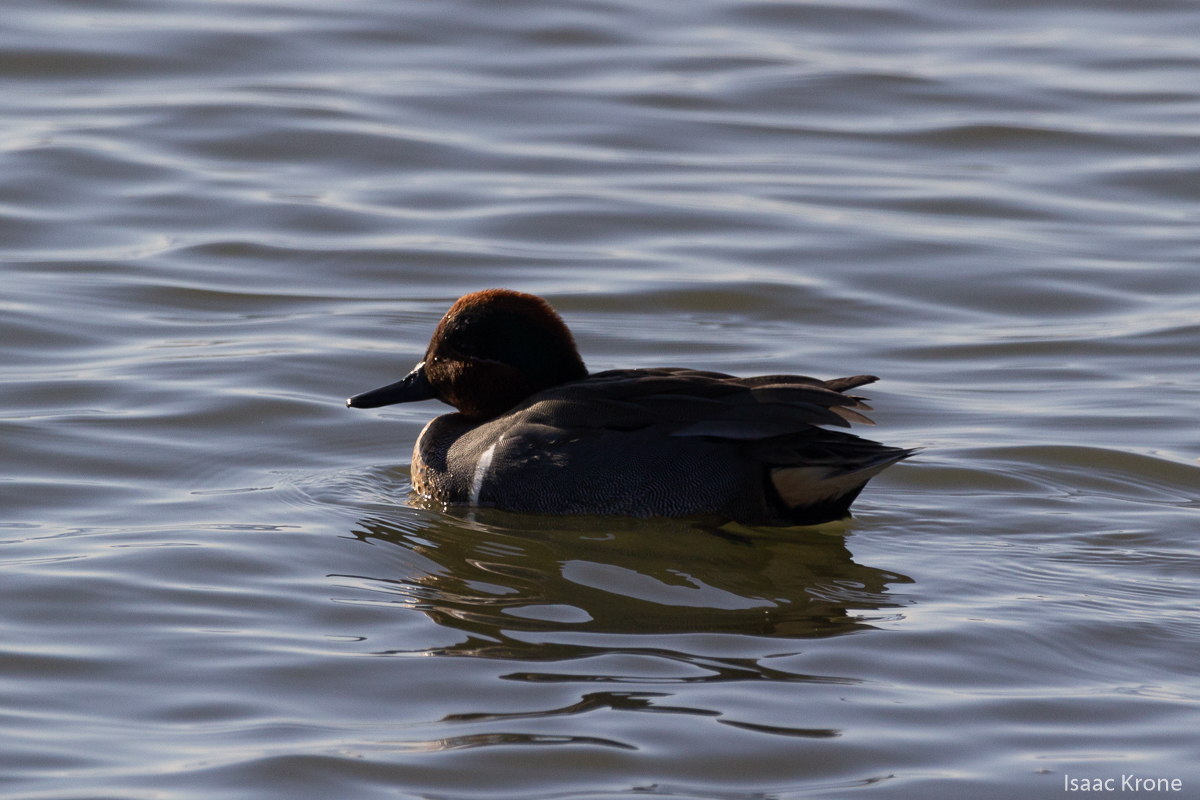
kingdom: Animalia
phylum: Chordata
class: Aves
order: Anseriformes
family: Anatidae
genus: Anas
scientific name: Anas crecca
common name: Eurasian teal
